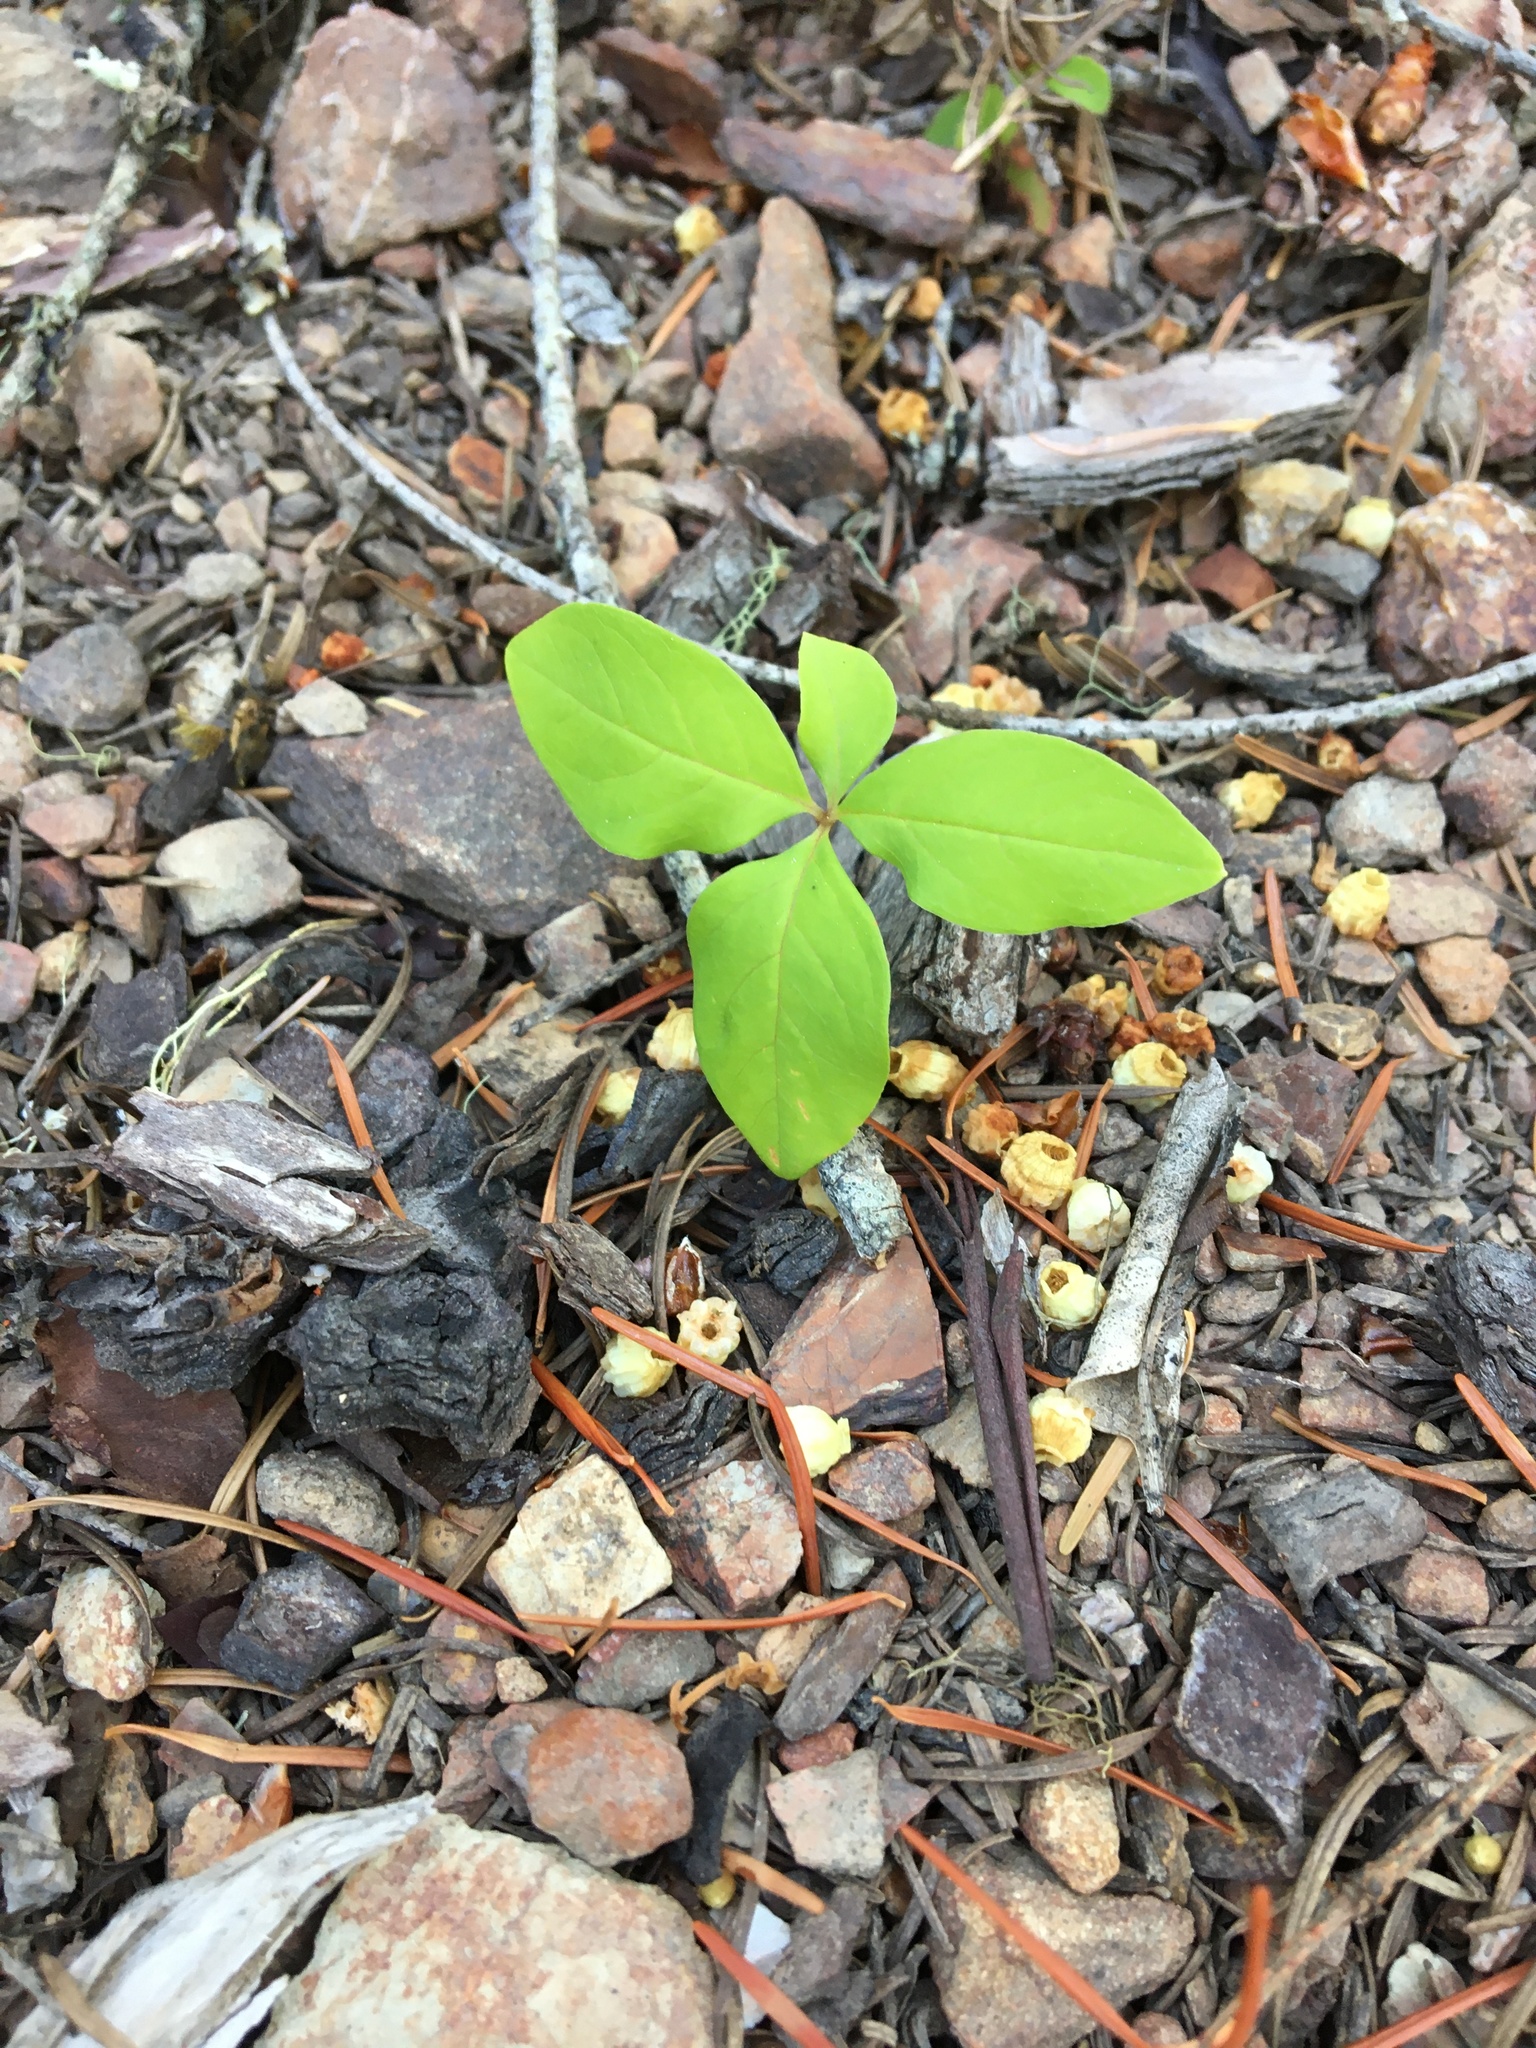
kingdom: Plantae
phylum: Tracheophyta
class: Magnoliopsida
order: Ericales
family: Primulaceae
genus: Lysimachia
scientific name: Lysimachia latifolia
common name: Pacific starflower
